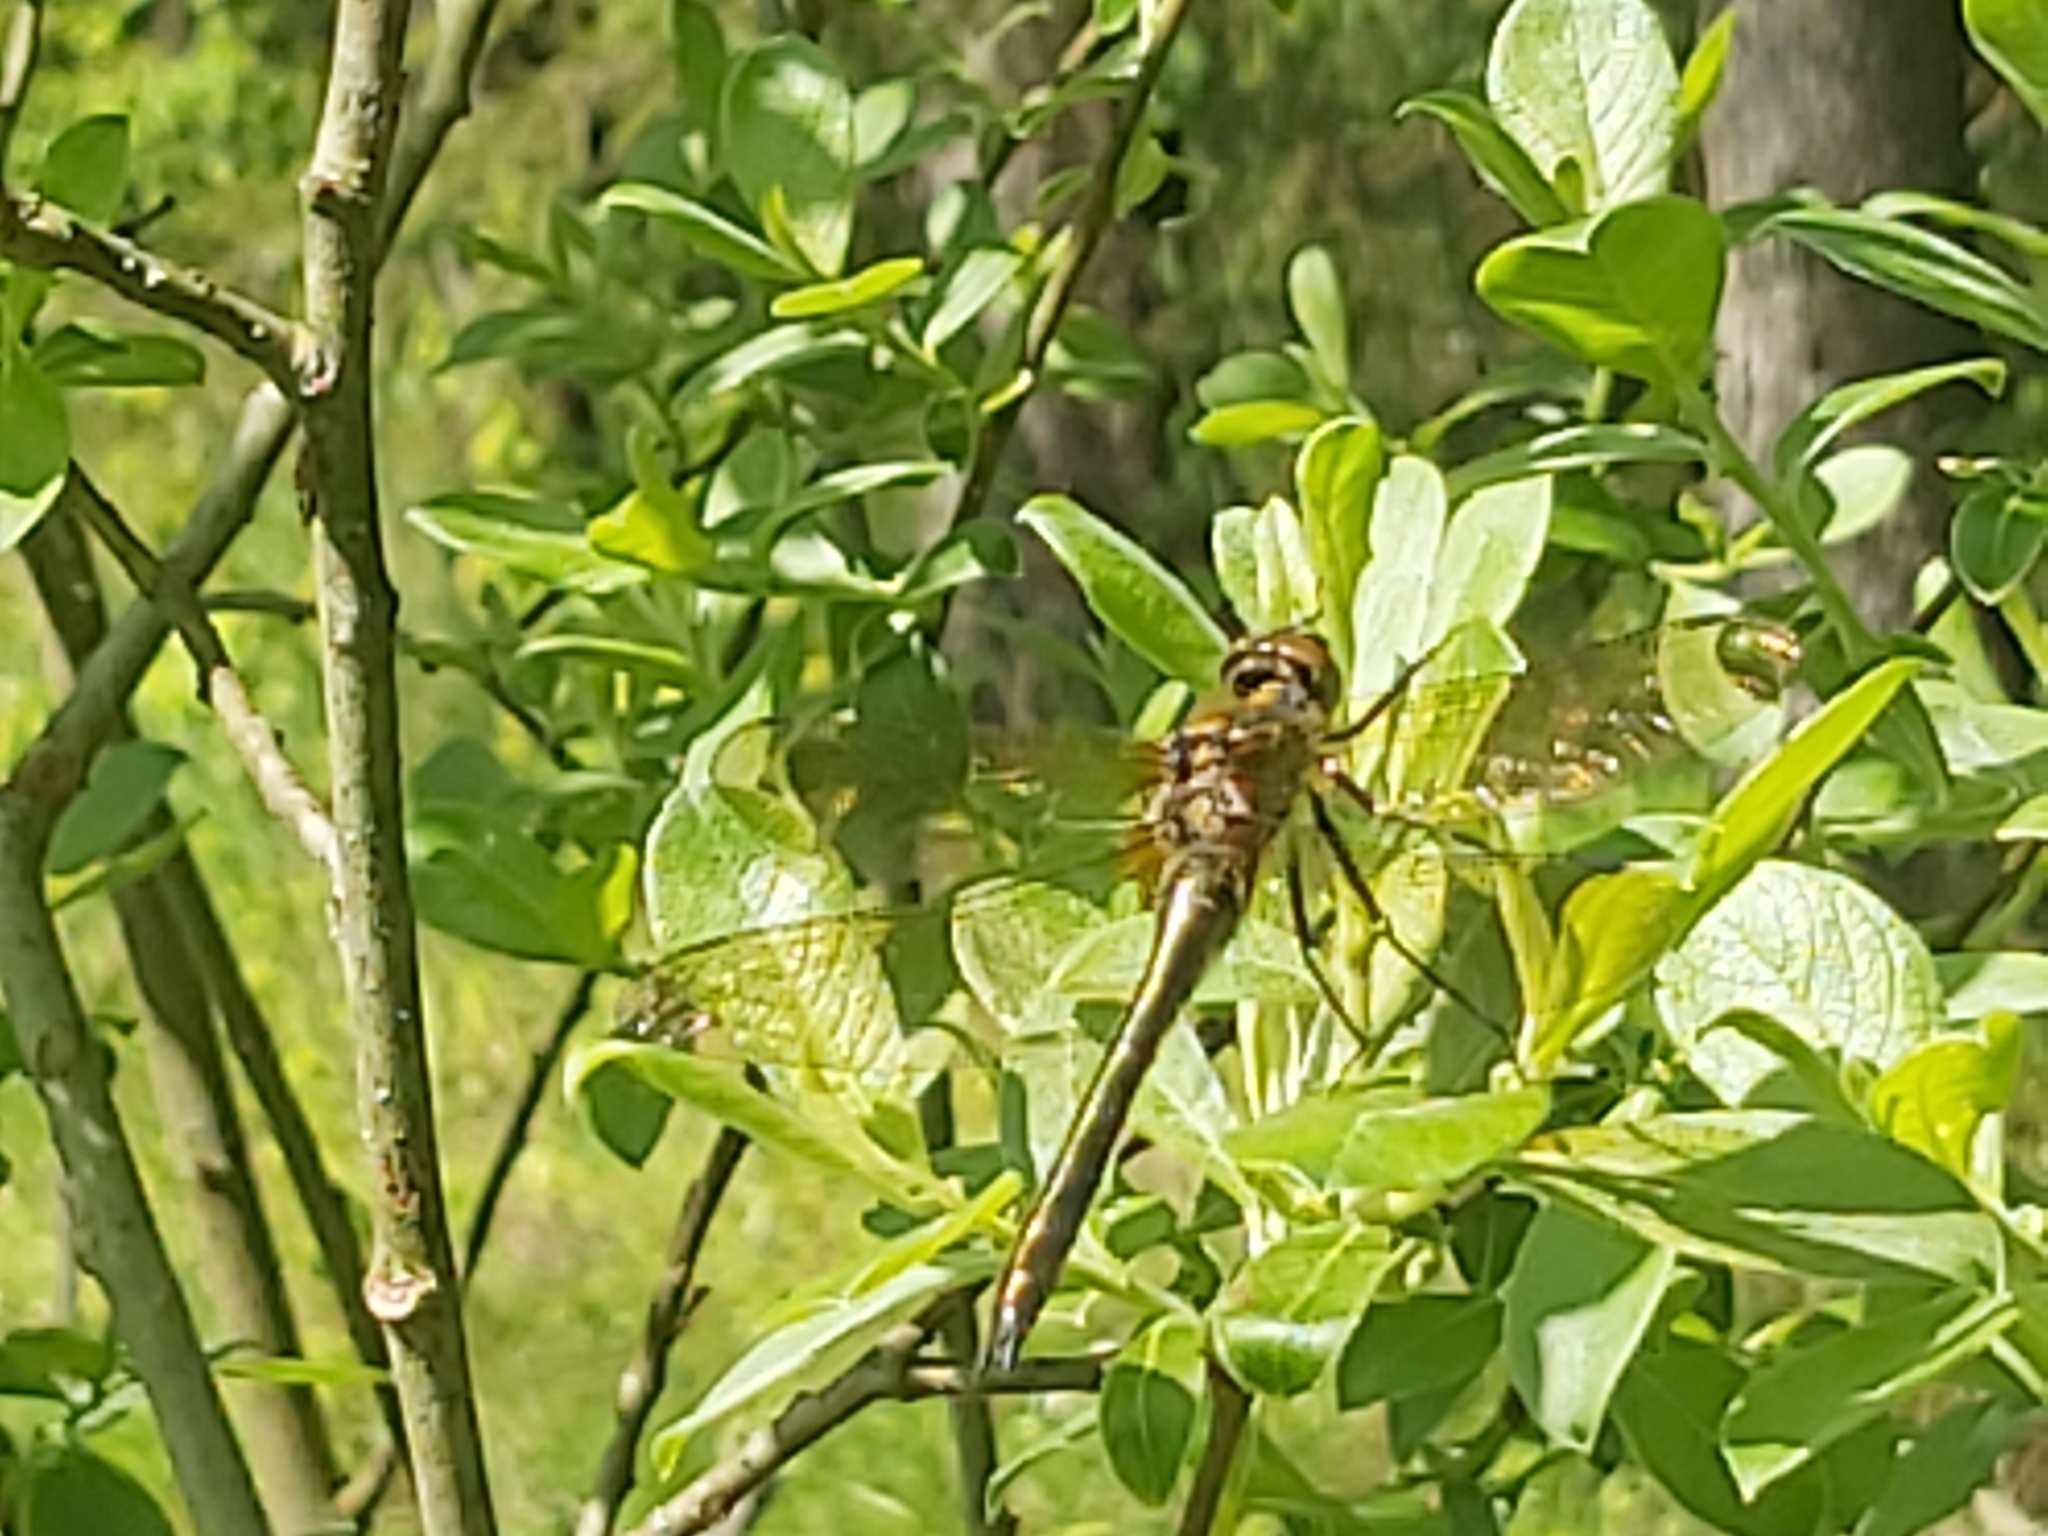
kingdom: Animalia
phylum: Arthropoda
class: Insecta
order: Odonata
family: Corduliidae
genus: Cordulia
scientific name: Cordulia aenea
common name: Downy emerald
